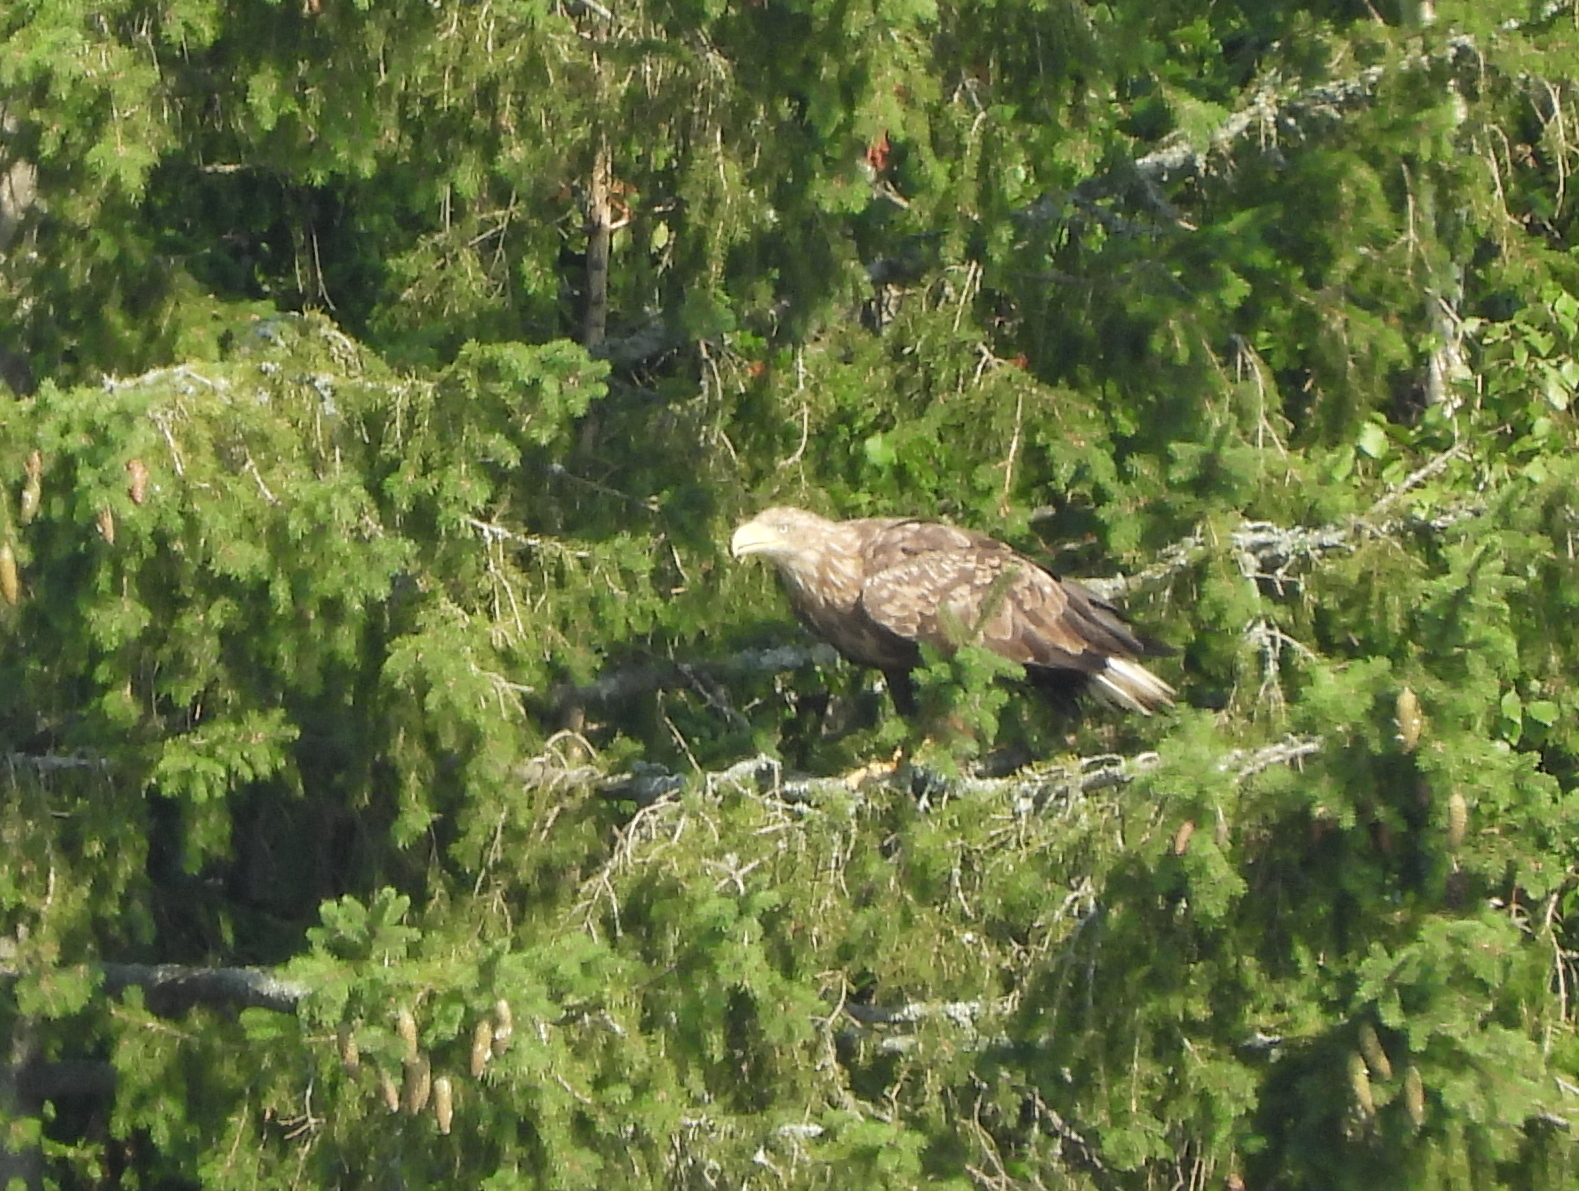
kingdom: Animalia
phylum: Chordata
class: Aves
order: Accipitriformes
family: Accipitridae
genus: Haliaeetus
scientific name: Haliaeetus albicilla
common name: White-tailed eagle
